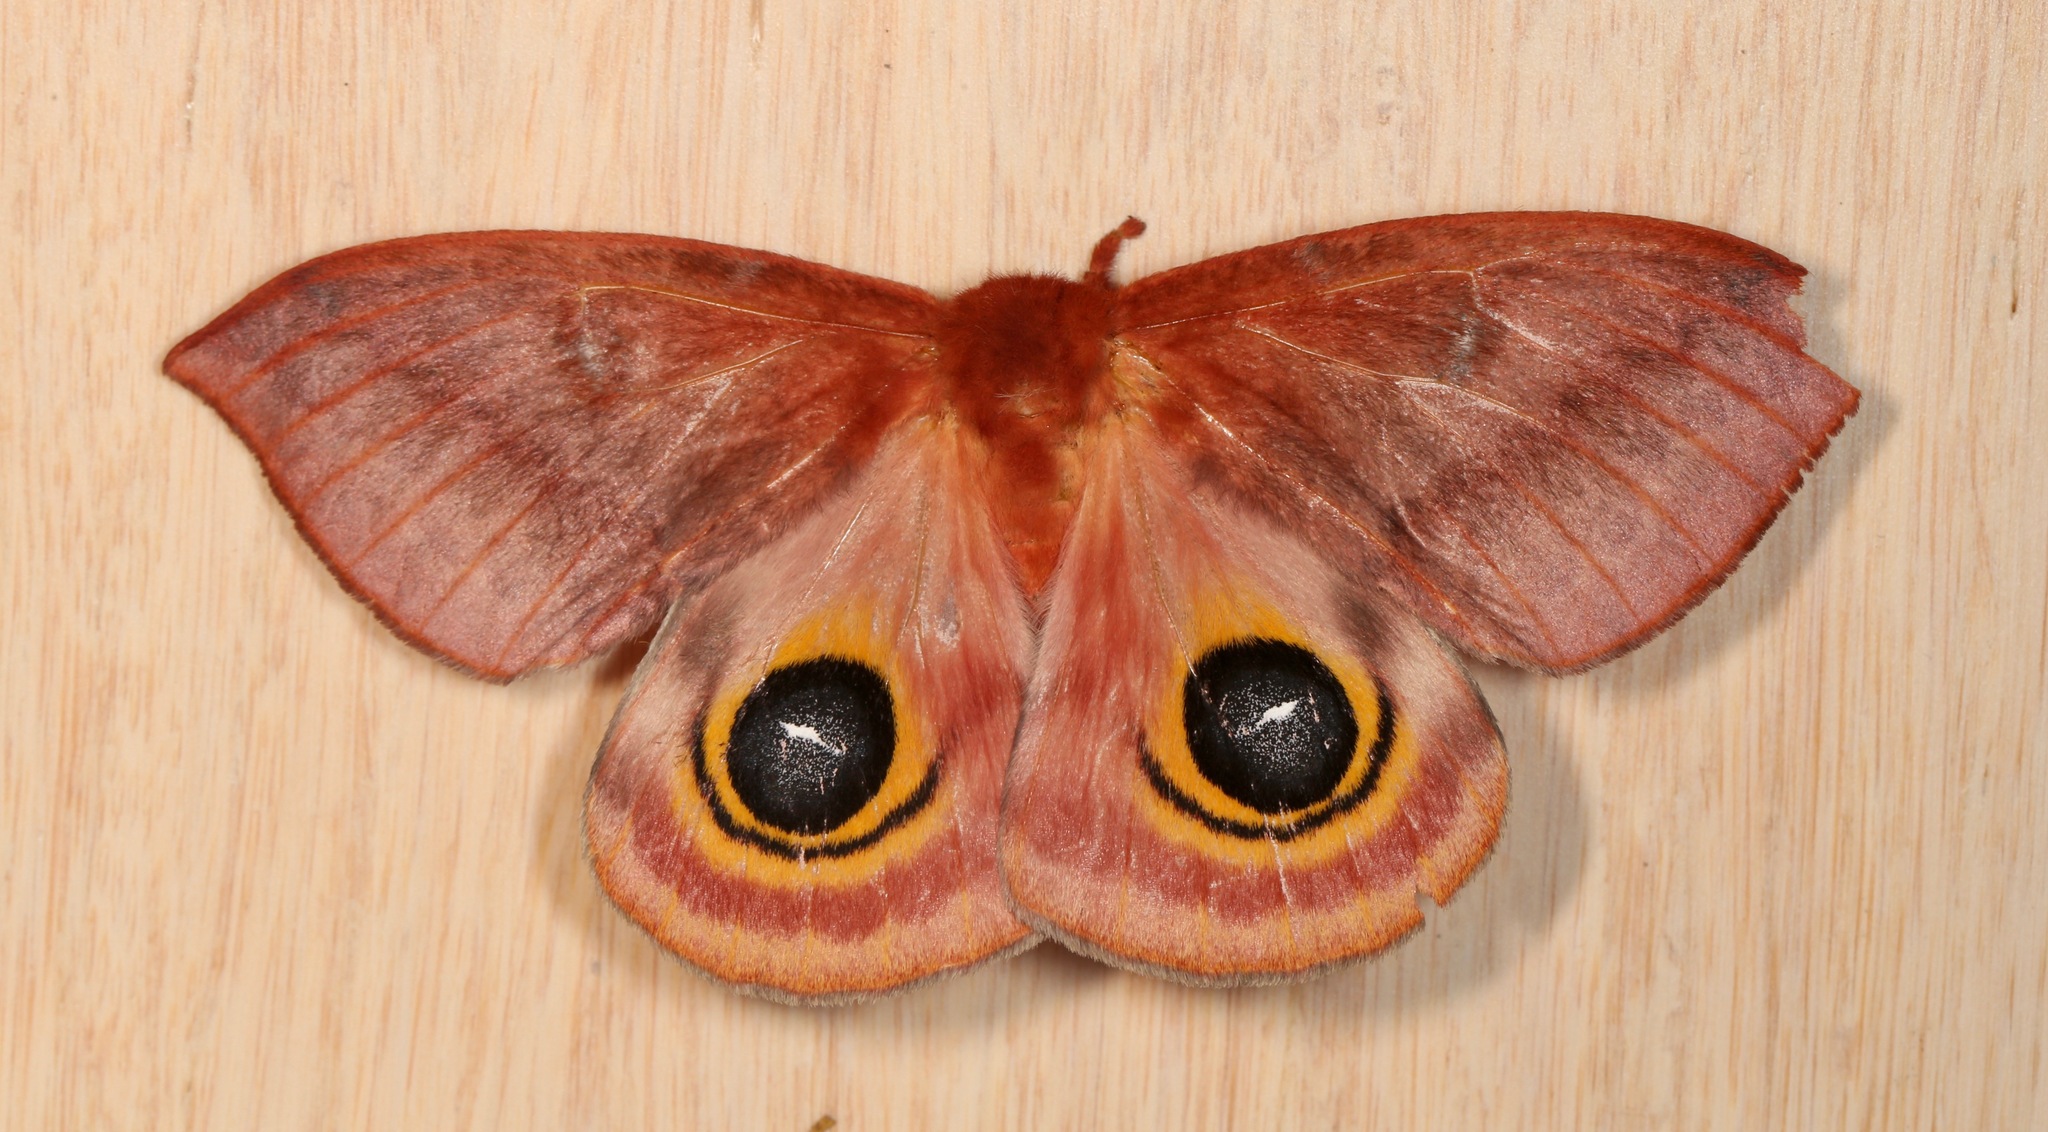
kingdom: Animalia
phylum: Arthropoda
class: Insecta
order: Lepidoptera
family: Saturniidae
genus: Automeris
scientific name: Automeris io
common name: Io moth
